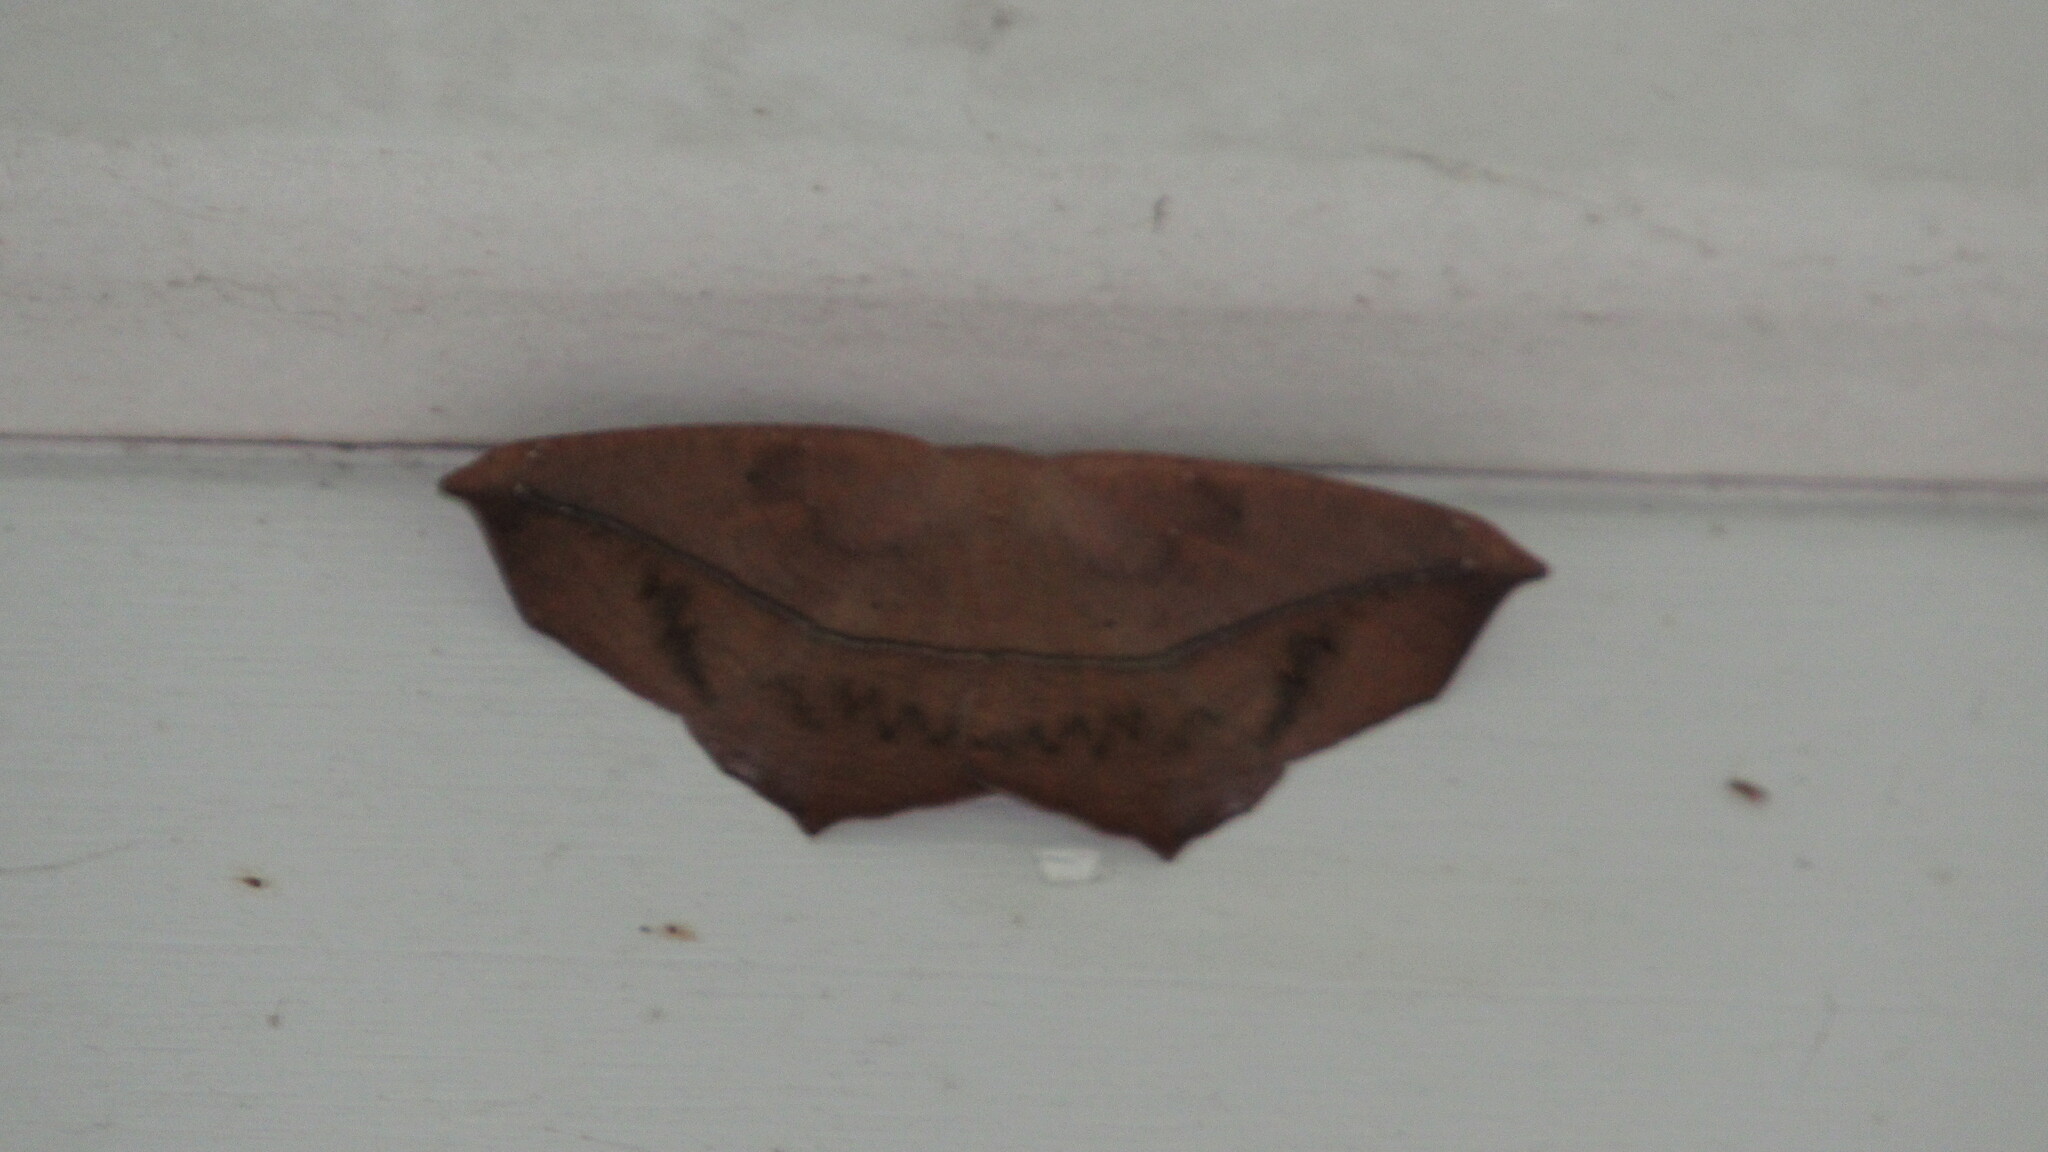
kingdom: Animalia
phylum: Arthropoda
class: Insecta
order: Lepidoptera
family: Geometridae
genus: Prochoerodes
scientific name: Prochoerodes lineola
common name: Large maple spanworm
